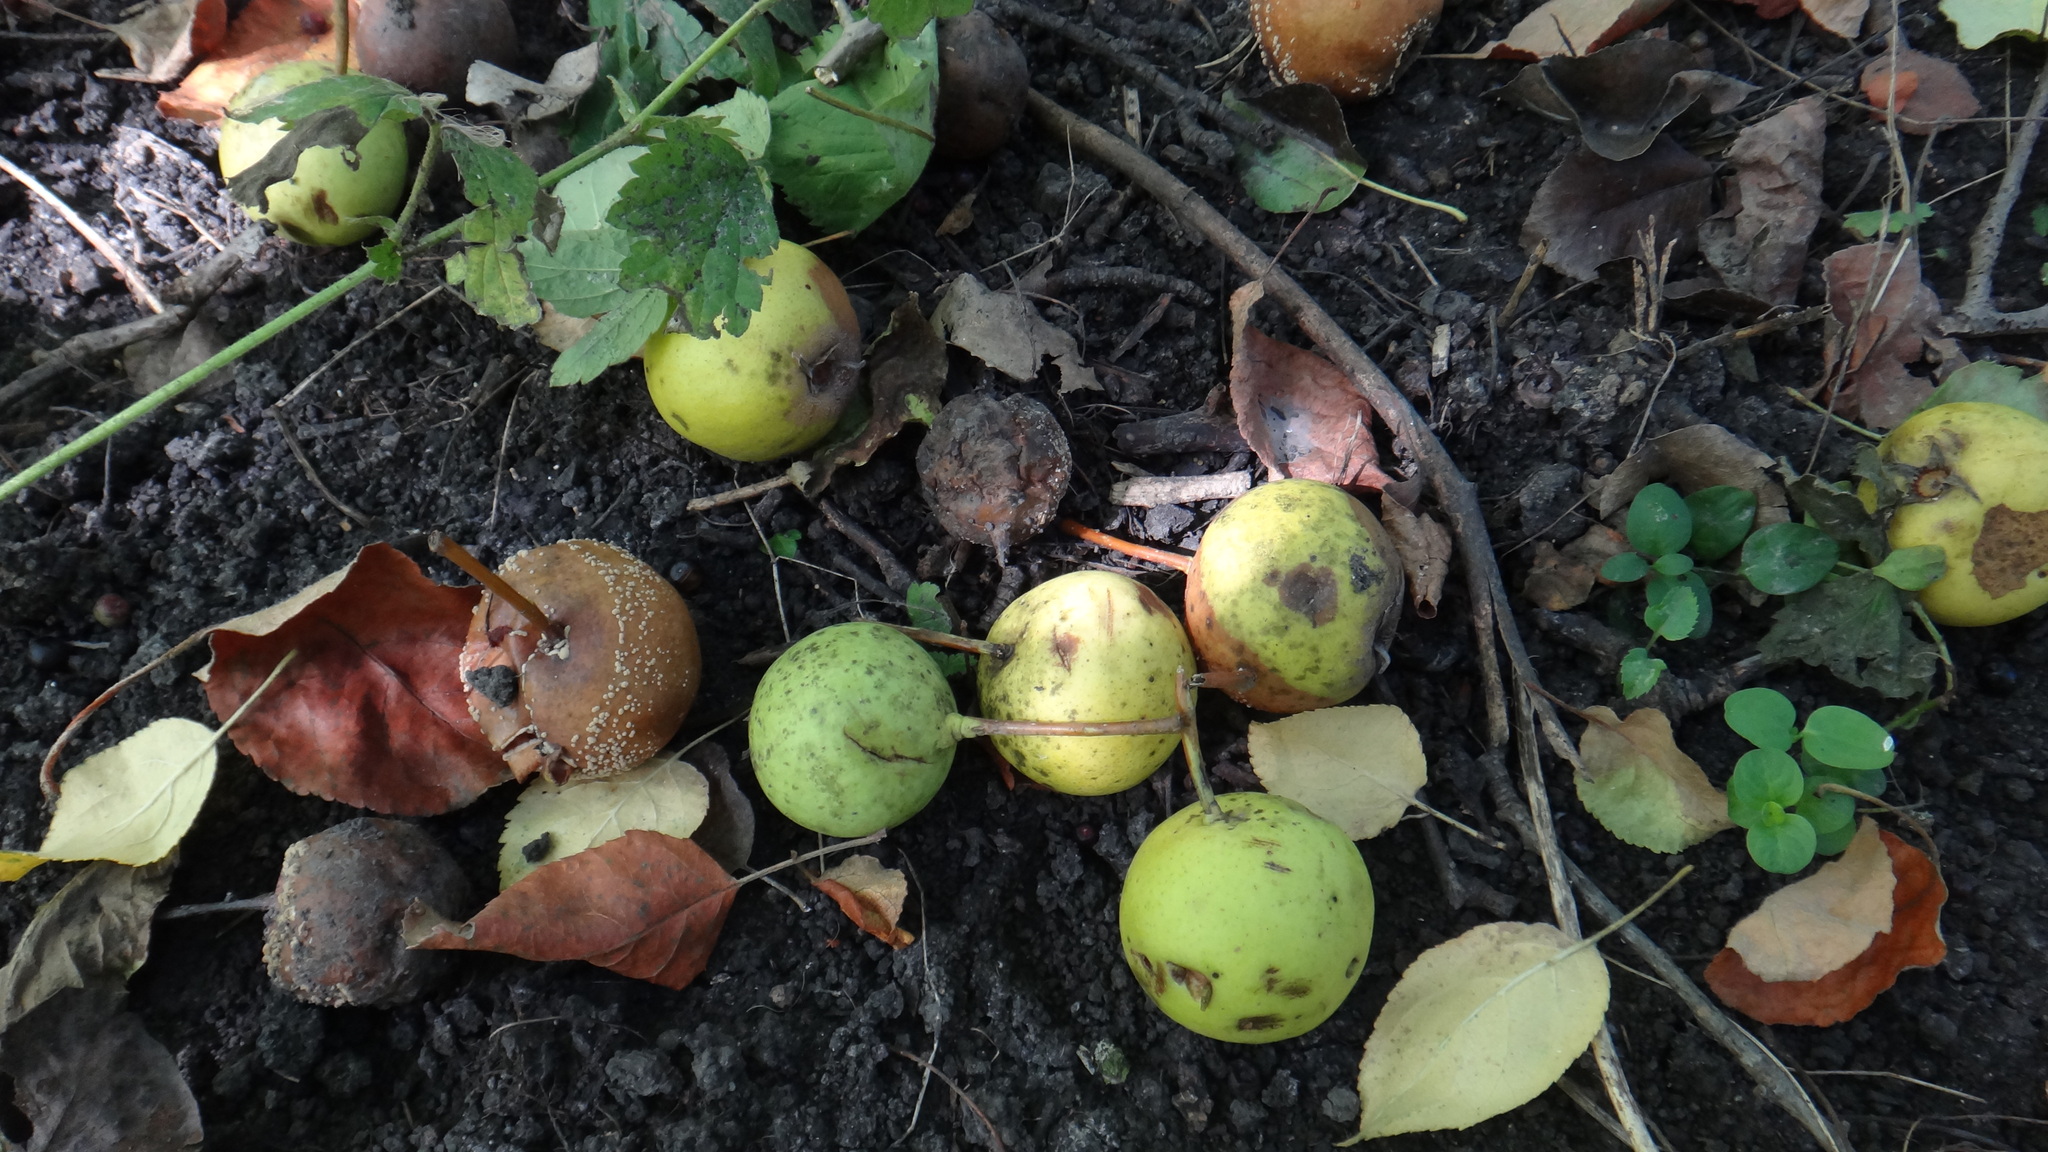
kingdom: Plantae
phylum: Tracheophyta
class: Magnoliopsida
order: Rosales
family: Rosaceae
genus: Pyrus
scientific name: Pyrus communis
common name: Pear
